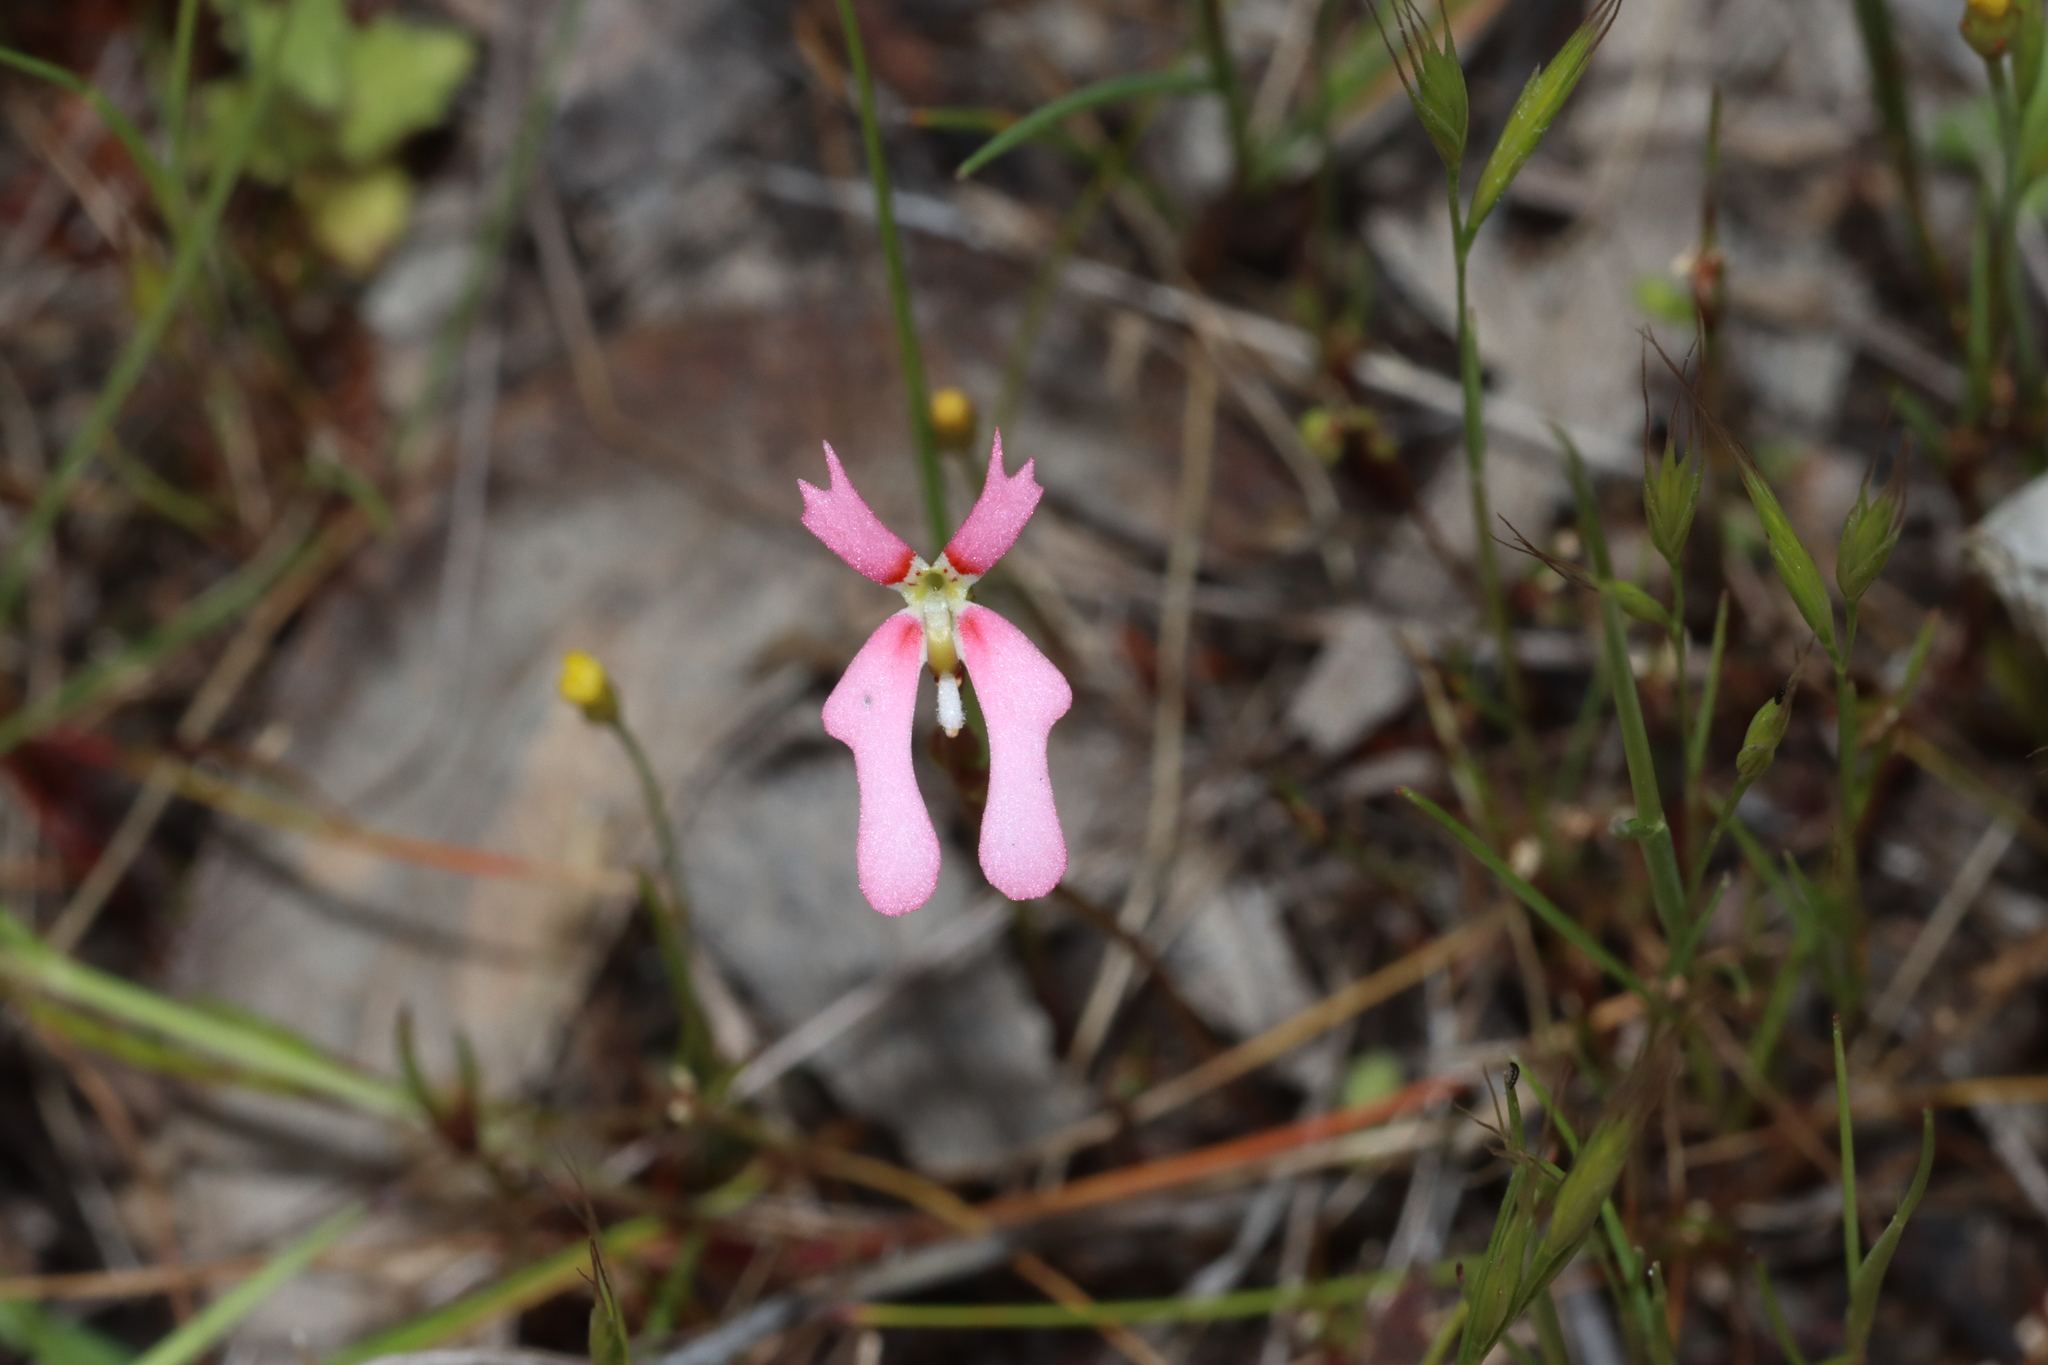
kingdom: Plantae
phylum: Tracheophyta
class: Magnoliopsida
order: Asterales
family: Stylidiaceae
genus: Stylidium
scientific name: Stylidium ecorne
